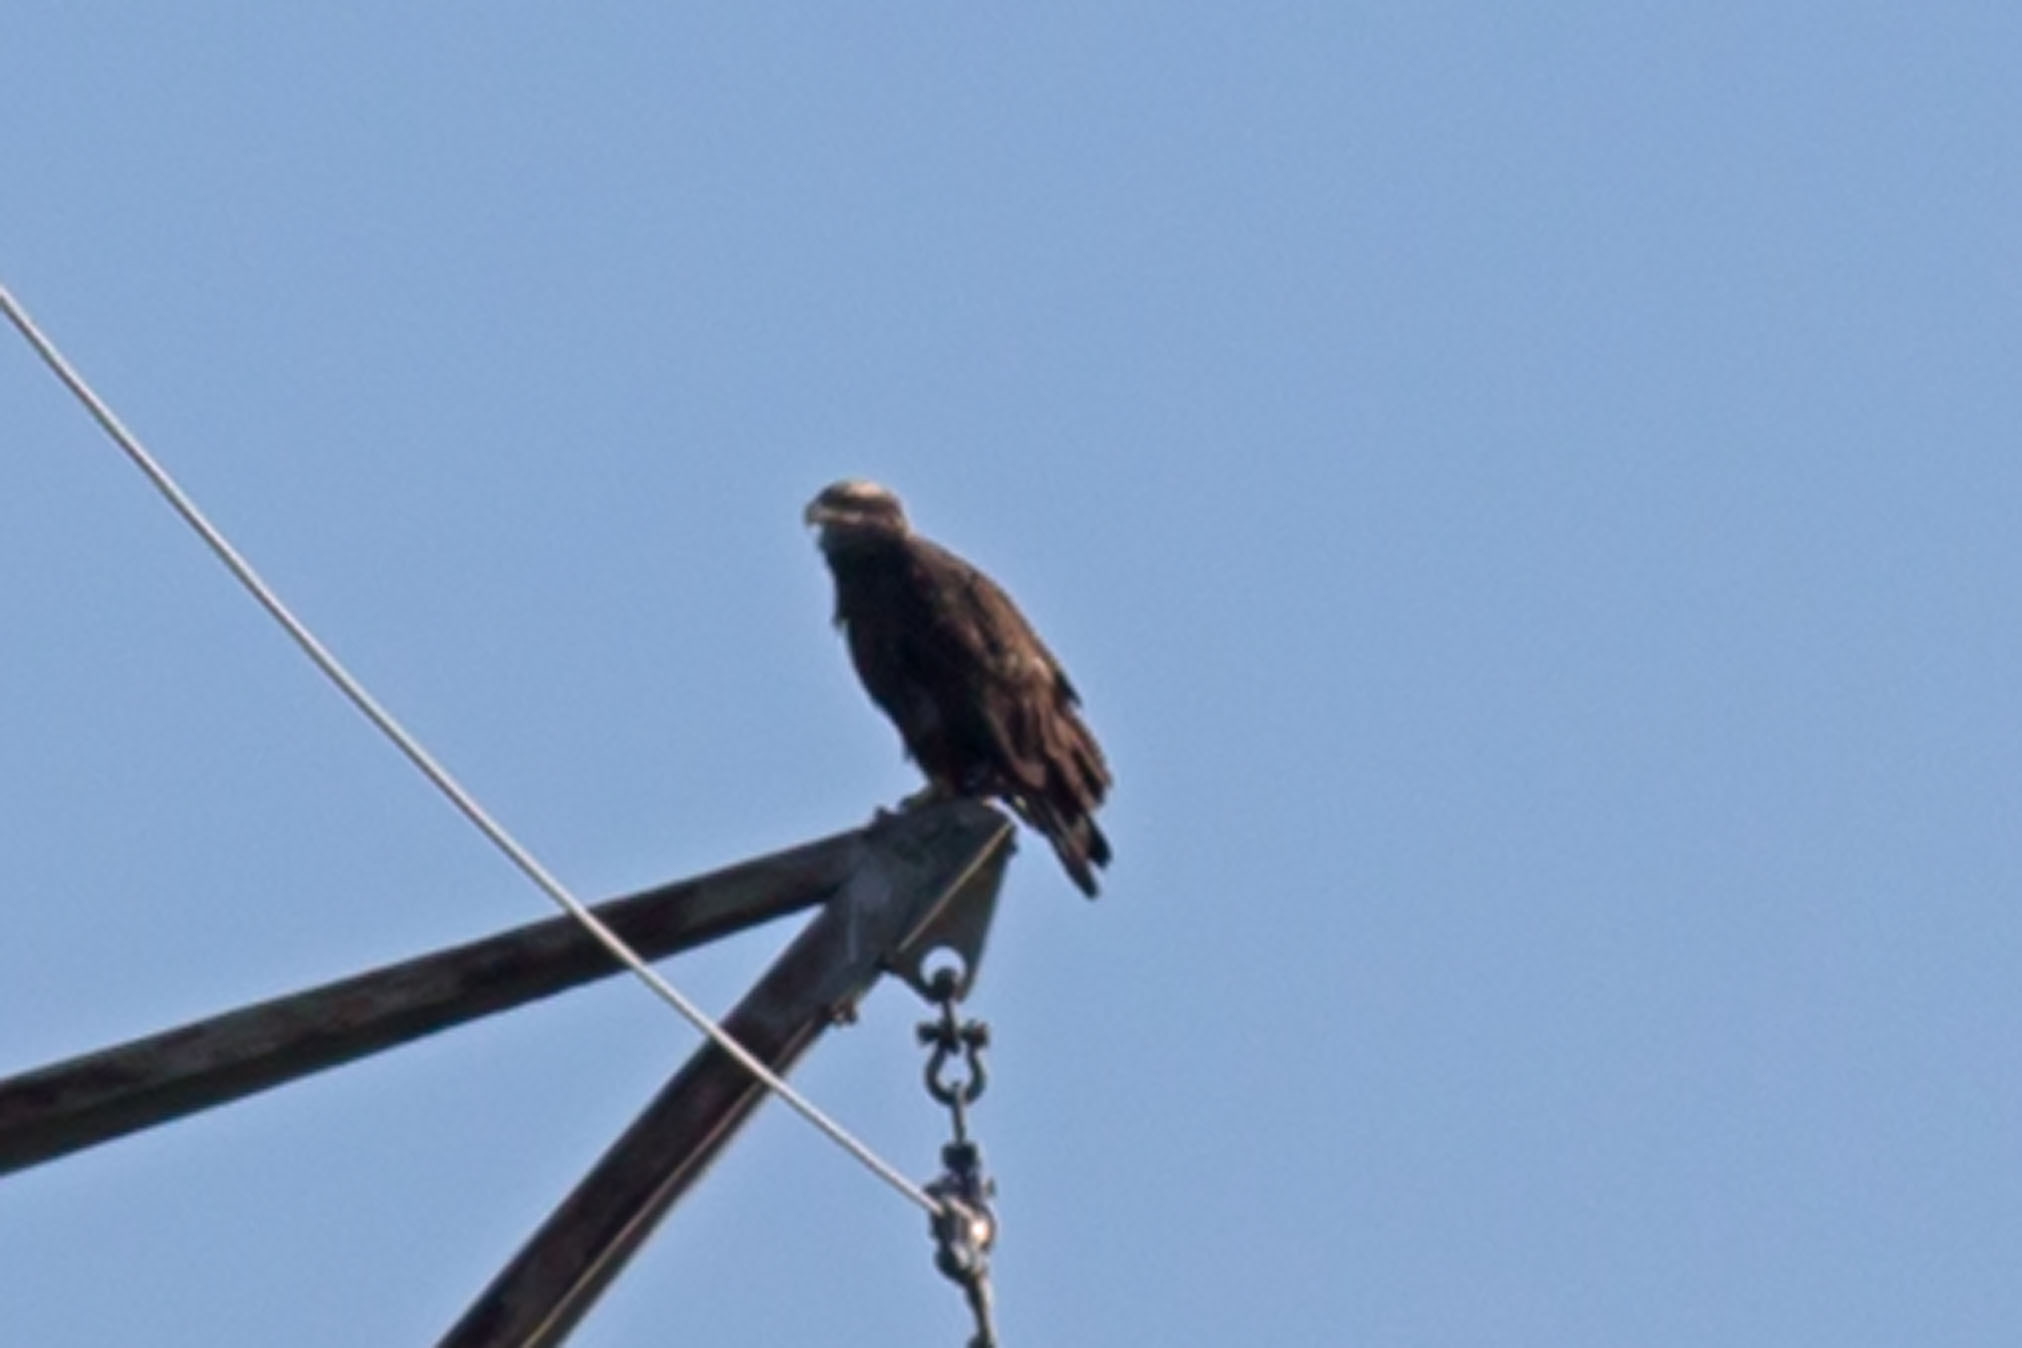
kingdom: Animalia
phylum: Chordata
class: Aves
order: Accipitriformes
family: Accipitridae
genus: Haliaeetus
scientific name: Haliaeetus leucocephalus
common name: Bald eagle
